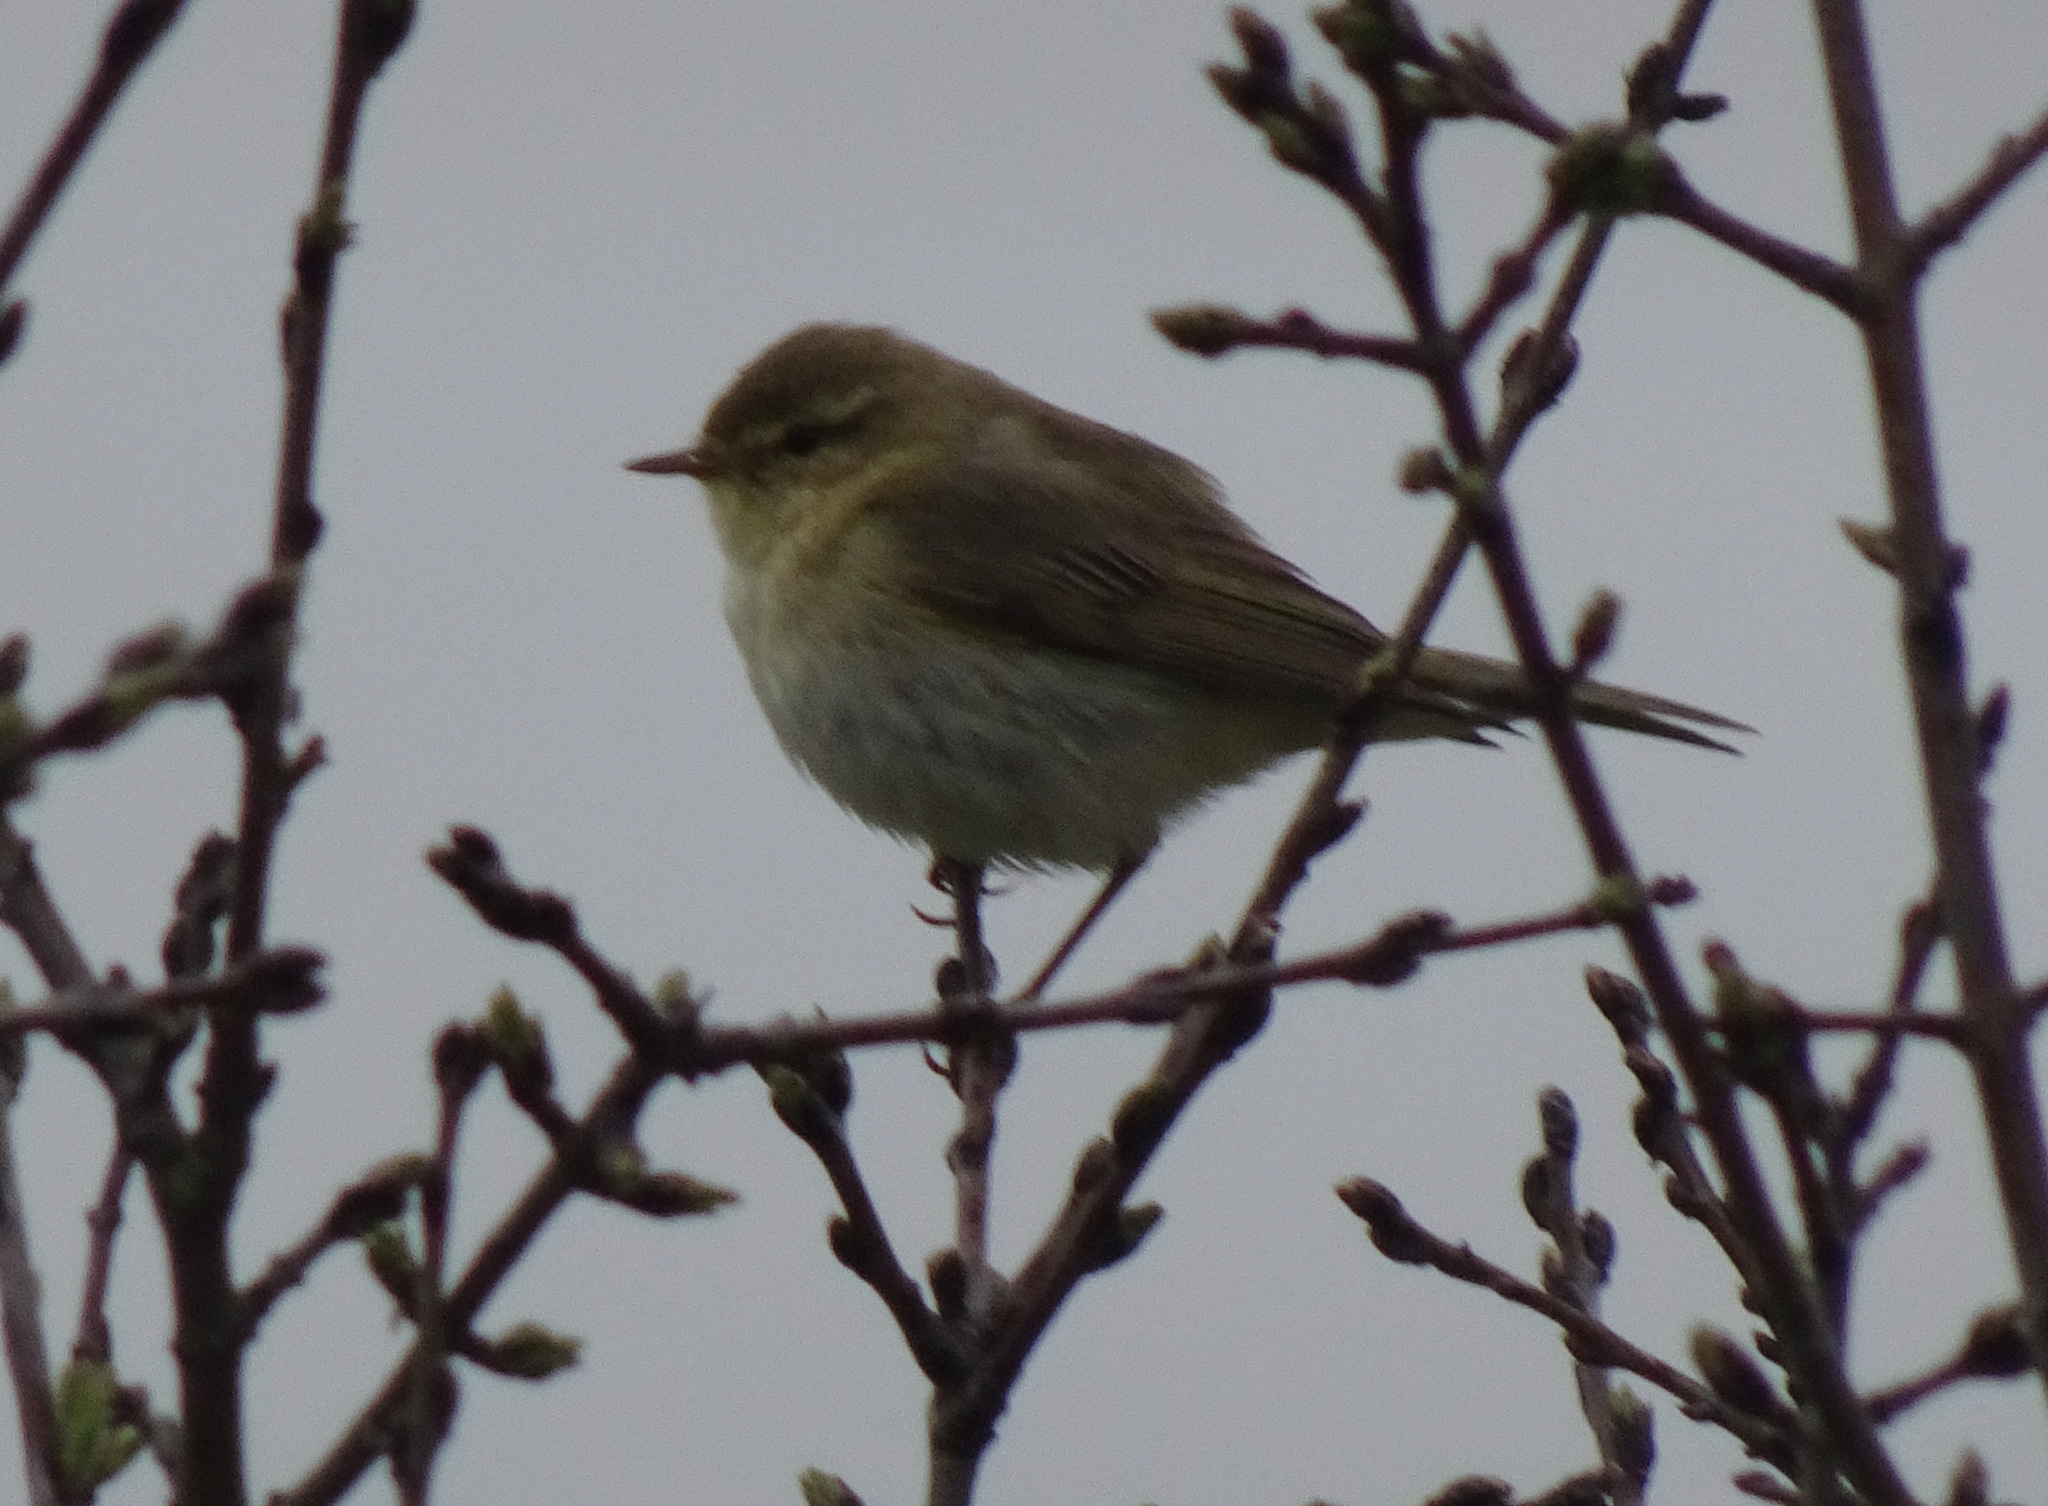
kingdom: Animalia
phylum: Chordata
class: Aves
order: Passeriformes
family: Phylloscopidae
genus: Phylloscopus
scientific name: Phylloscopus collybita
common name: Common chiffchaff
